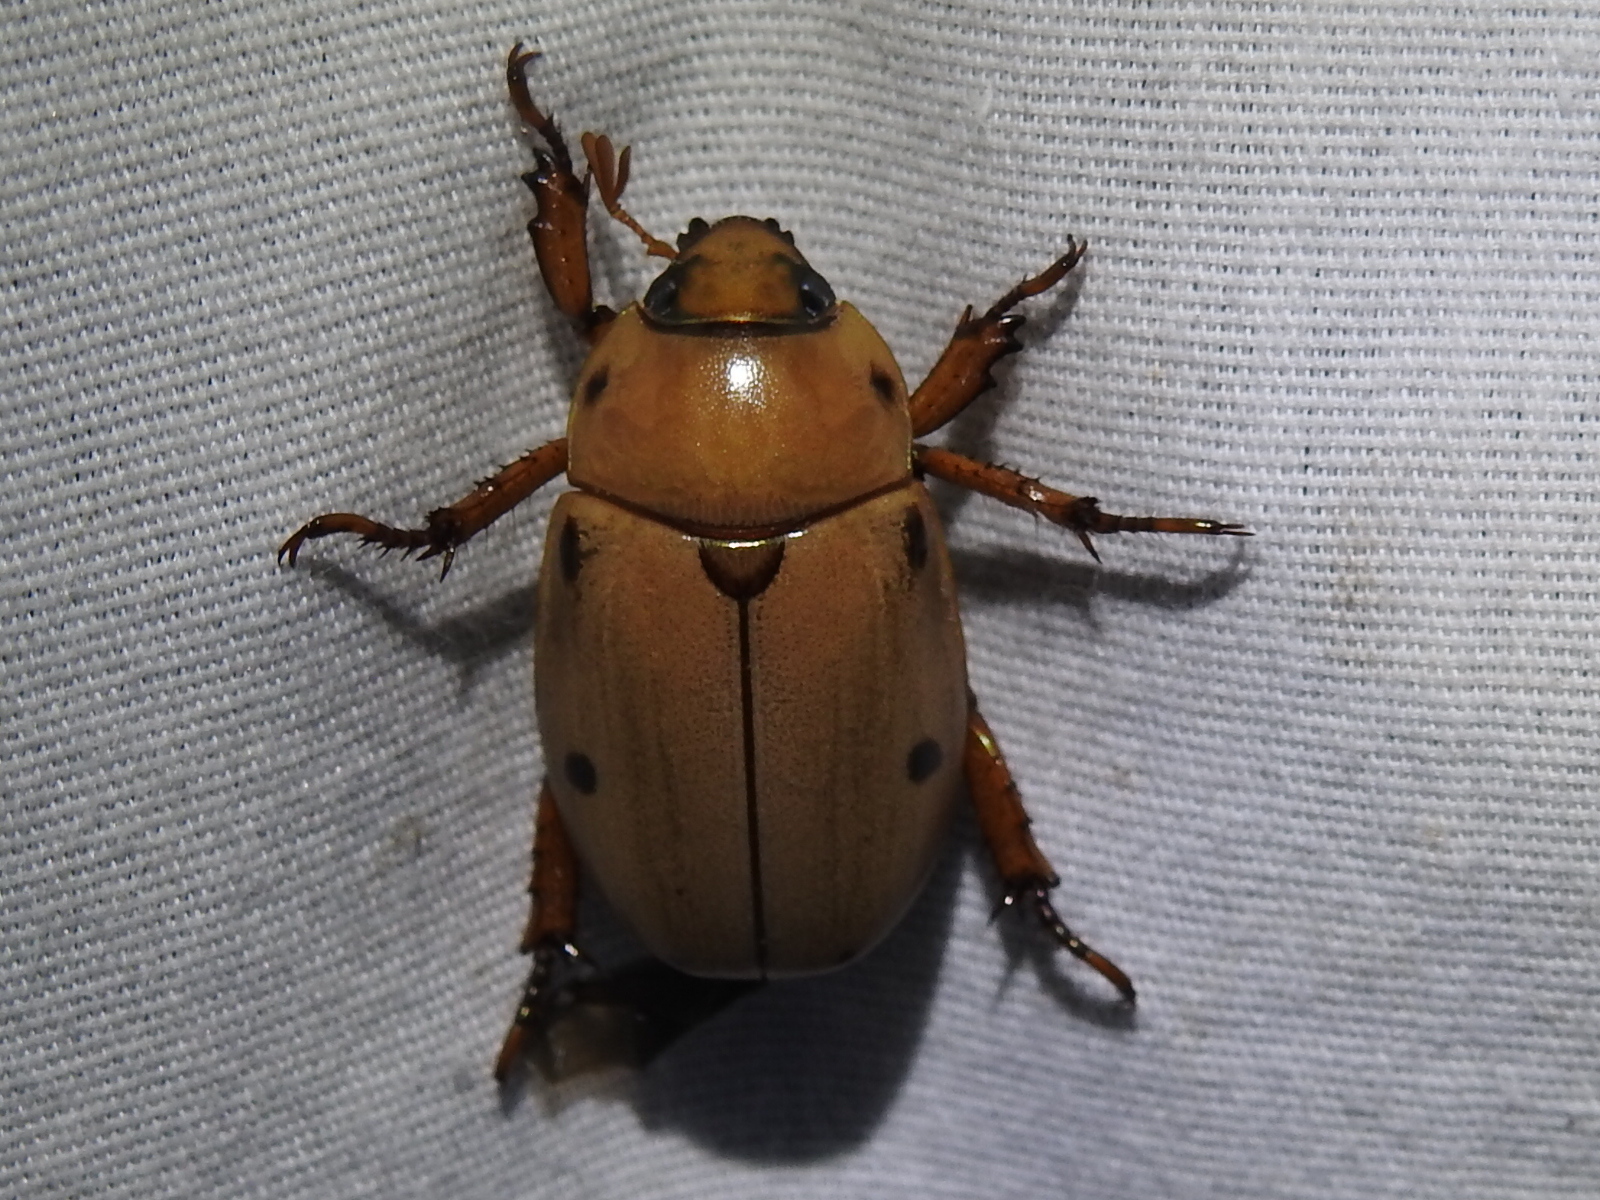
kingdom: Animalia
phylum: Arthropoda
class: Insecta
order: Coleoptera
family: Scarabaeidae
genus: Pelidnota
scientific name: Pelidnota punctata
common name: Grapevine beetle
